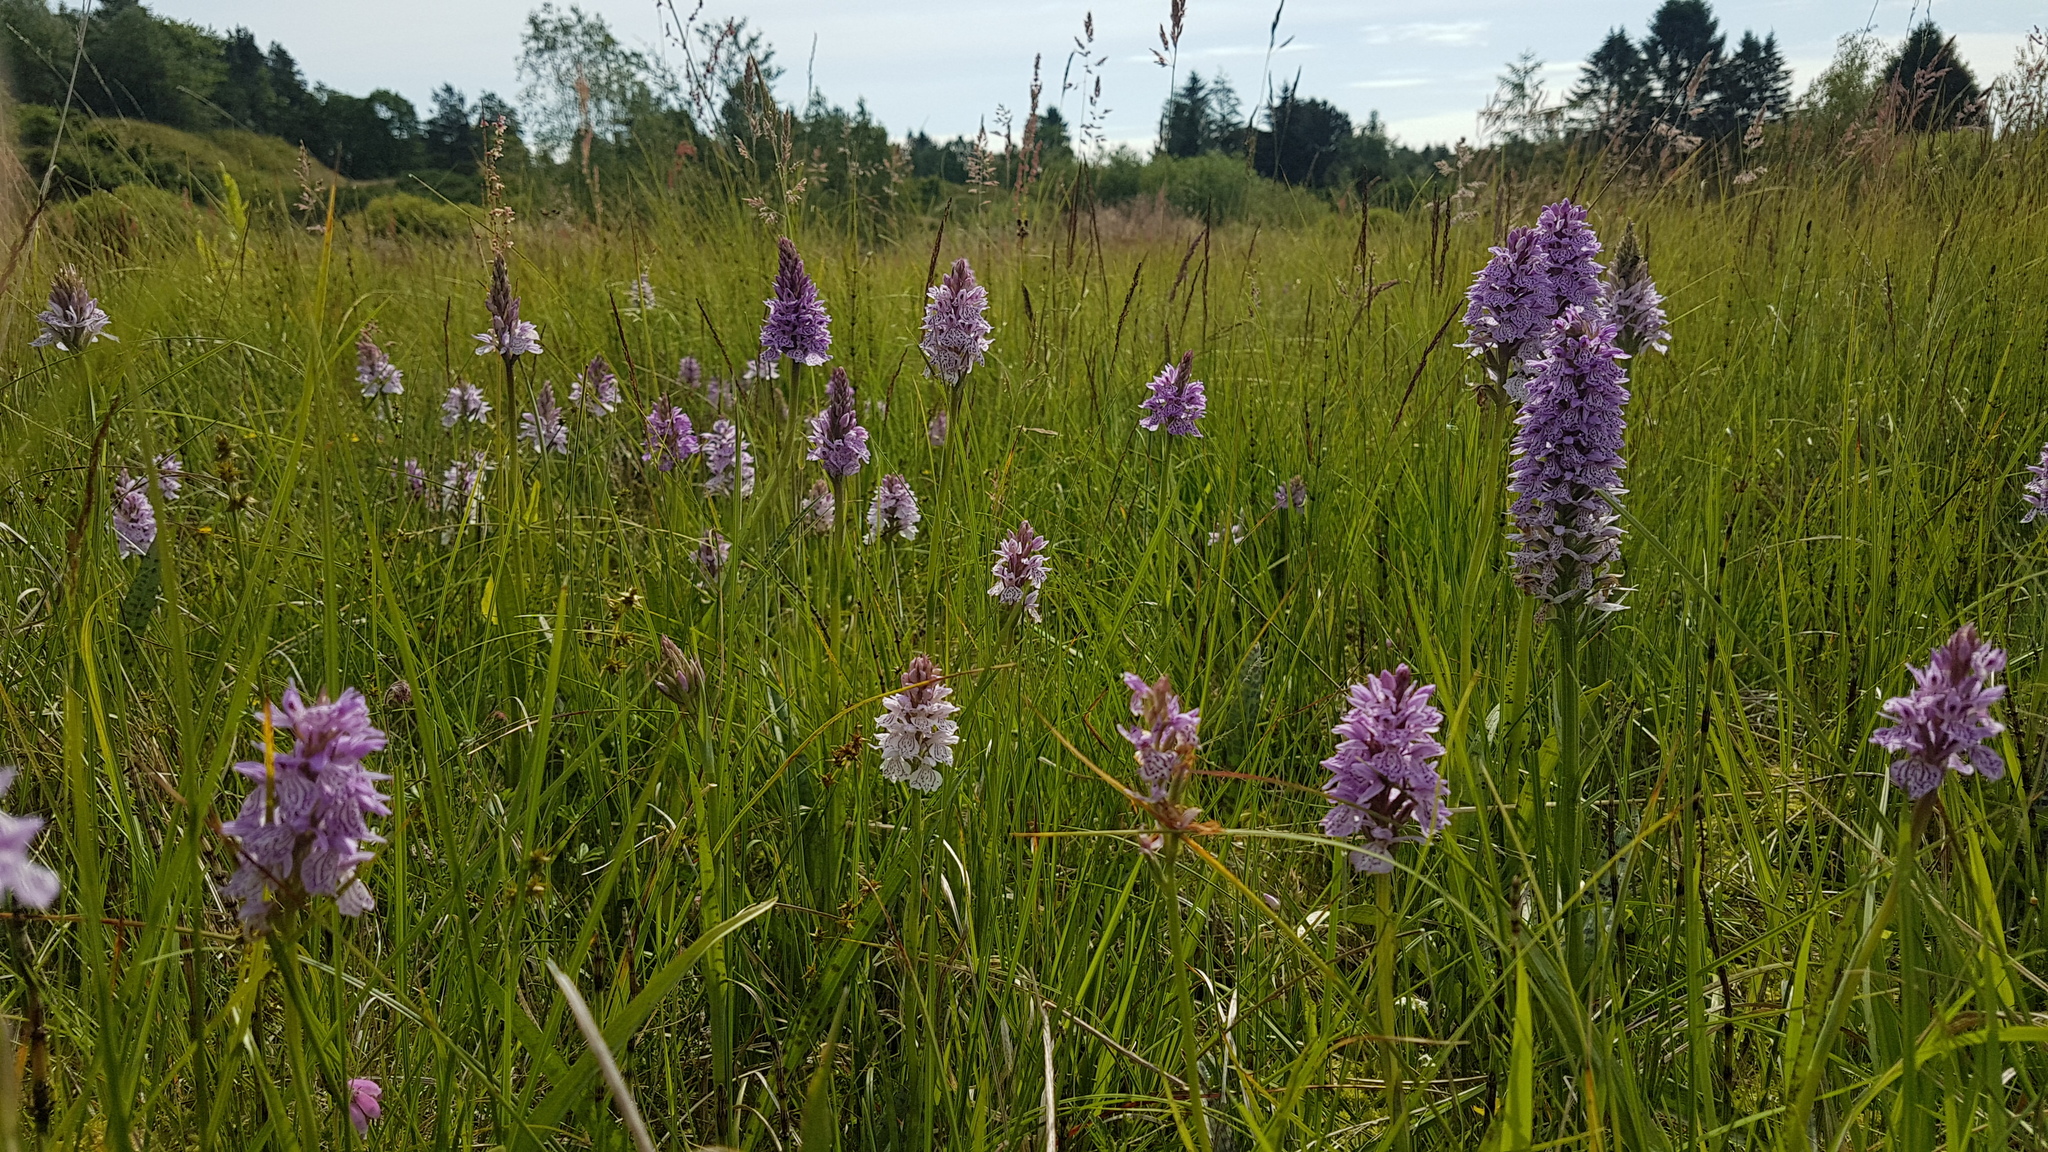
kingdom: Plantae
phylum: Tracheophyta
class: Liliopsida
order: Asparagales
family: Orchidaceae
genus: Dactylorhiza
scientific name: Dactylorhiza maculata
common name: Heath spotted-orchid
